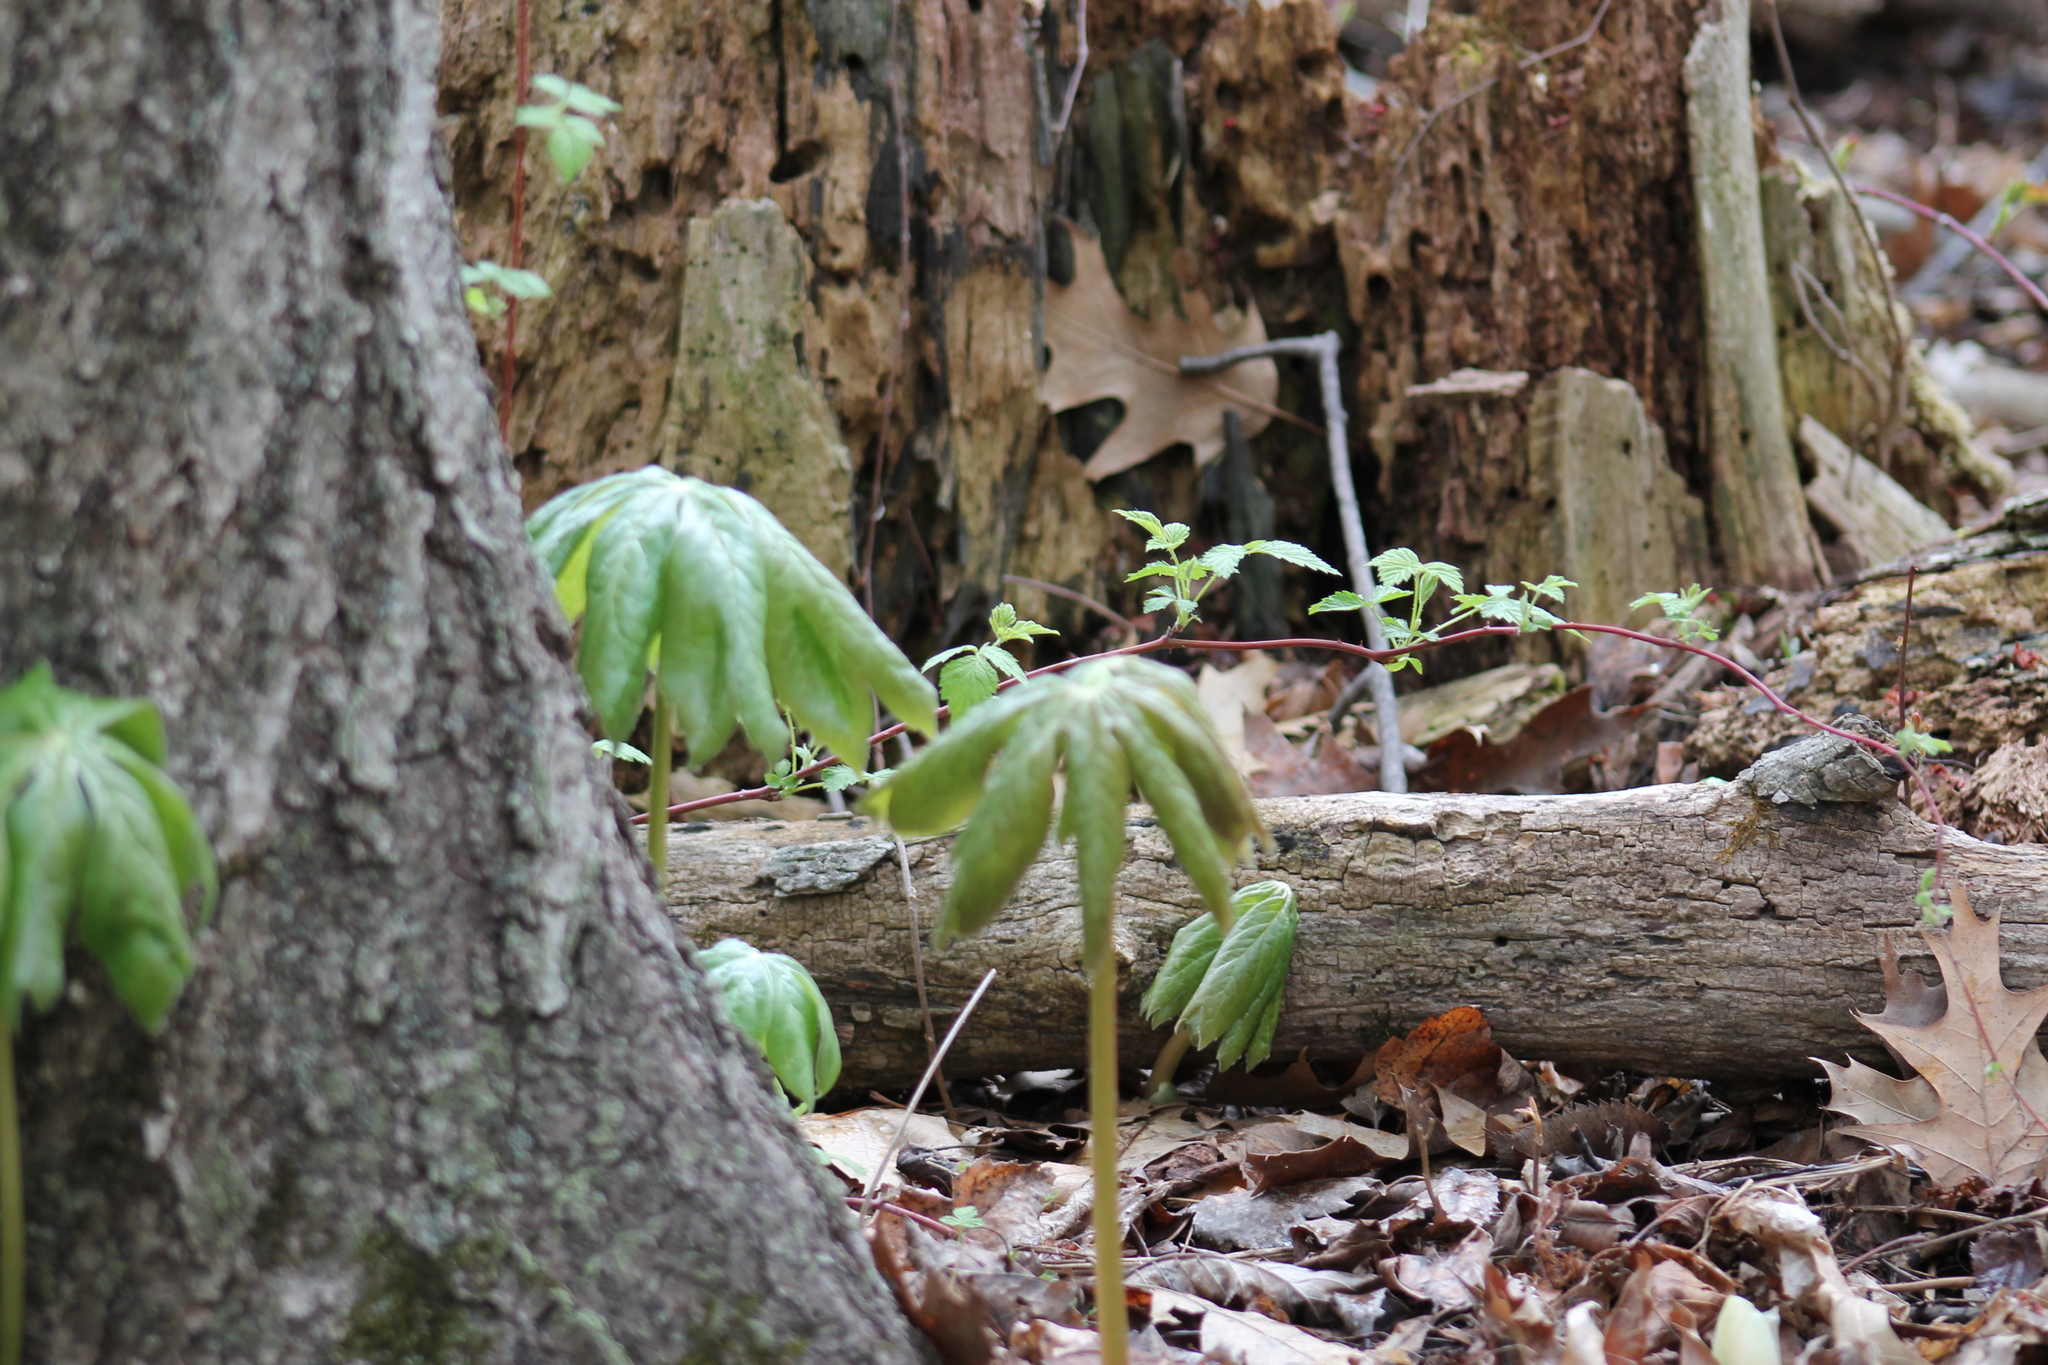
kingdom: Plantae
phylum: Tracheophyta
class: Magnoliopsida
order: Ranunculales
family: Berberidaceae
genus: Podophyllum
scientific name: Podophyllum peltatum
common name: Wild mandrake
